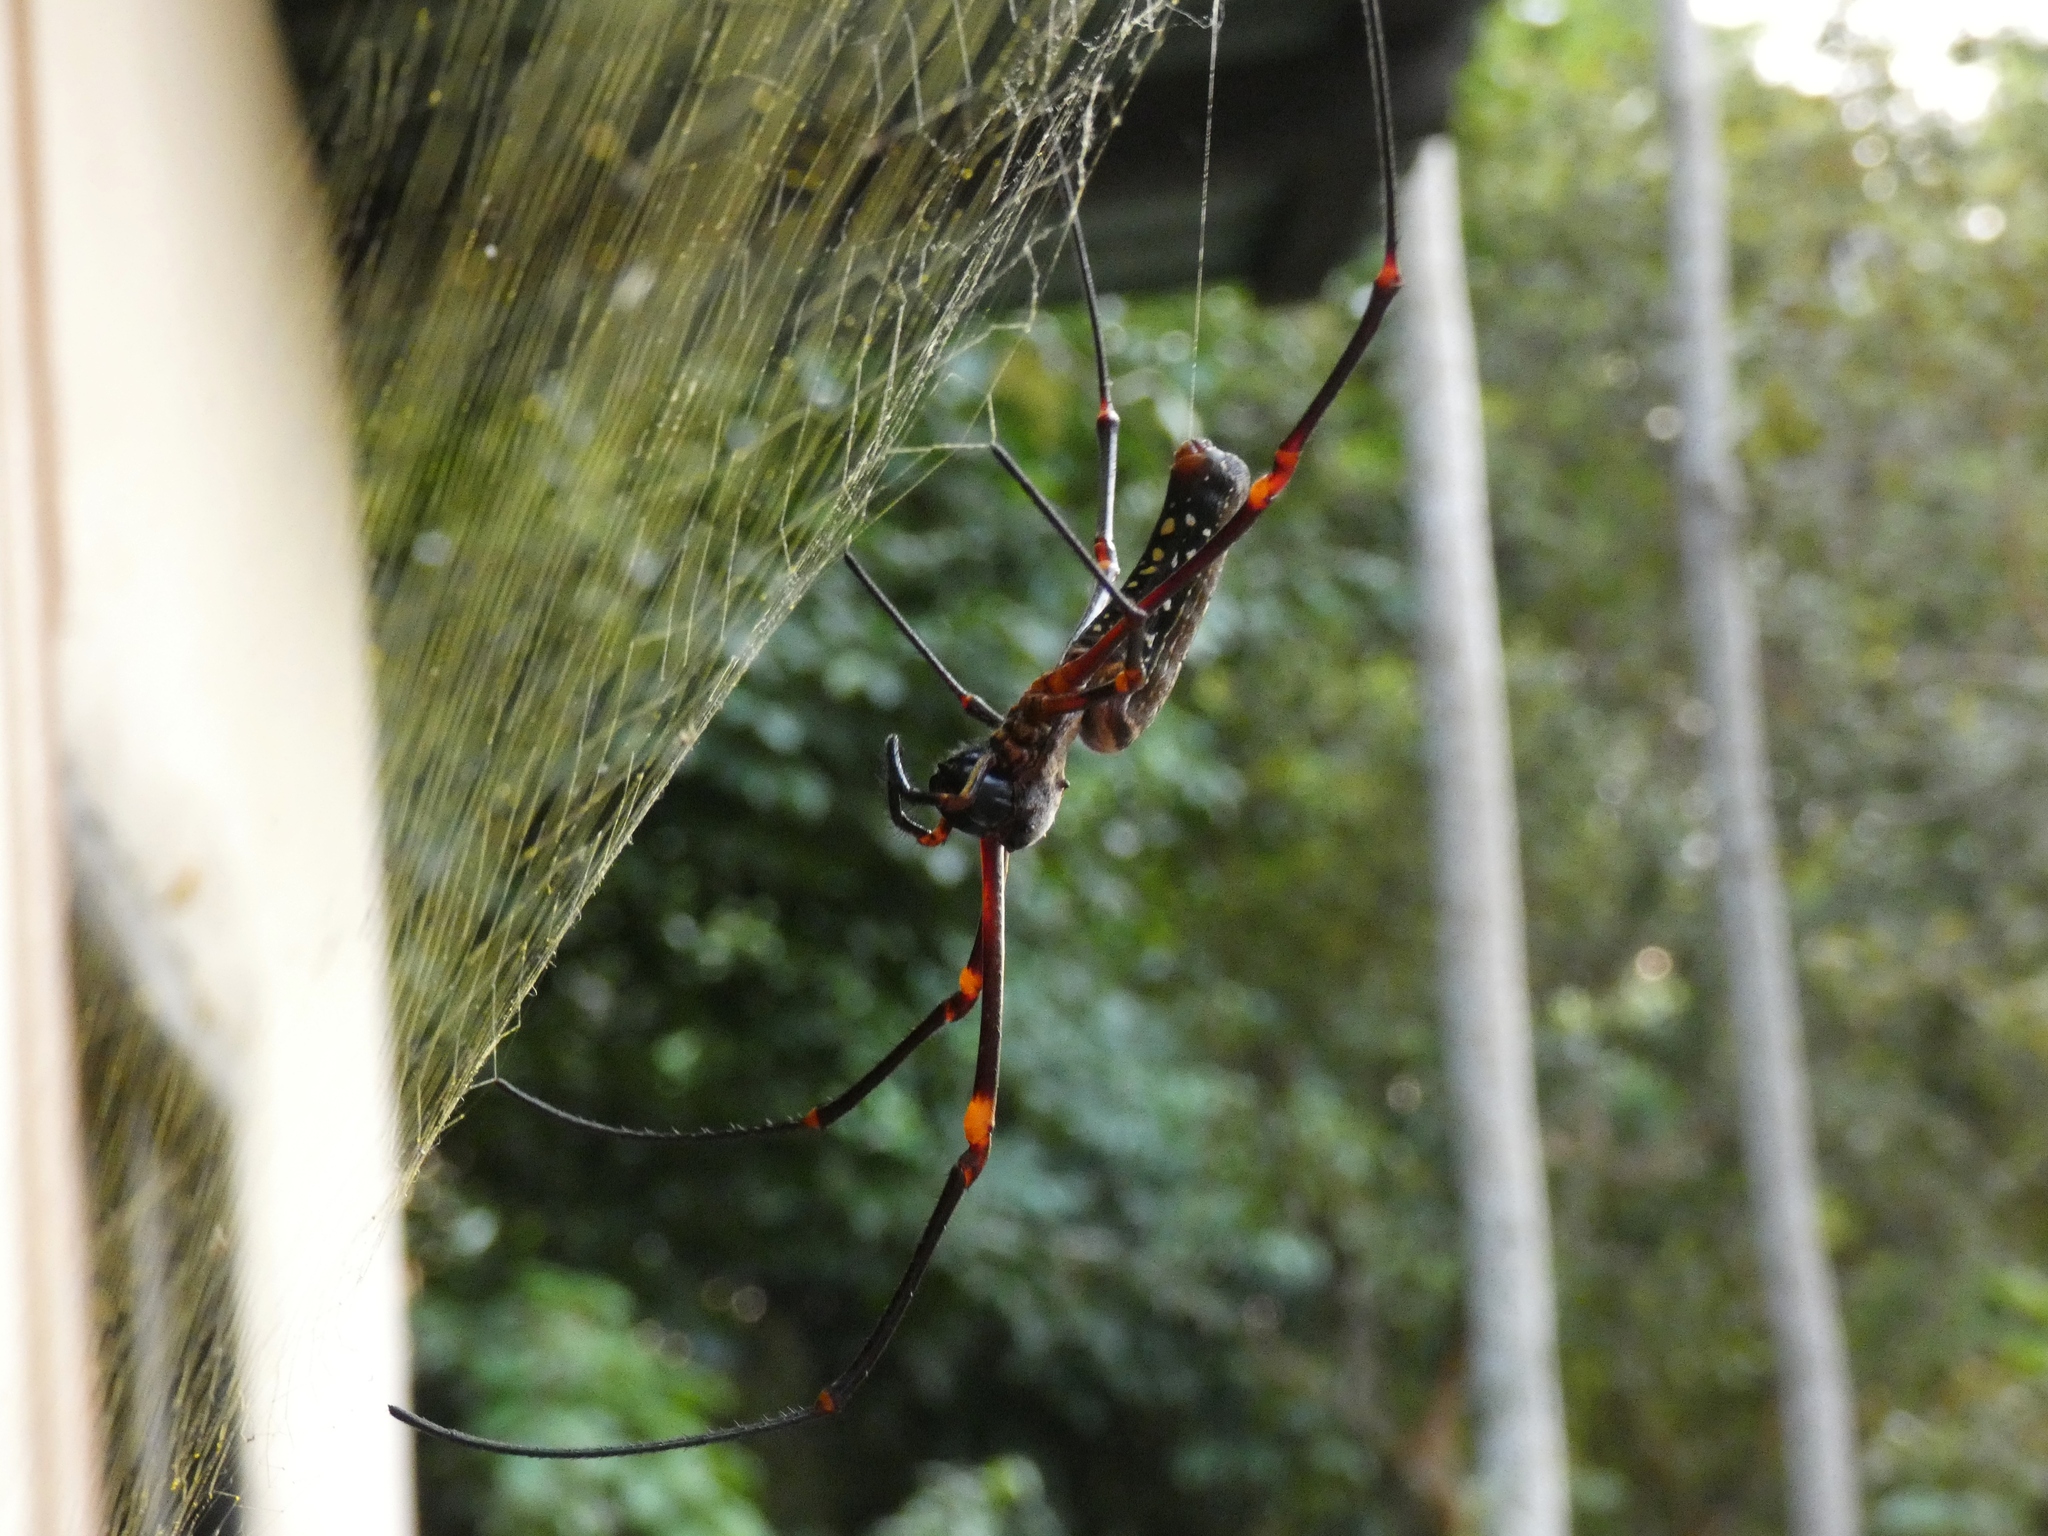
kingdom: Animalia
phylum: Arthropoda
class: Arachnida
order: Araneae
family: Araneidae
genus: Nephila
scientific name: Nephila constricta
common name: Constricted golden orb weaver
